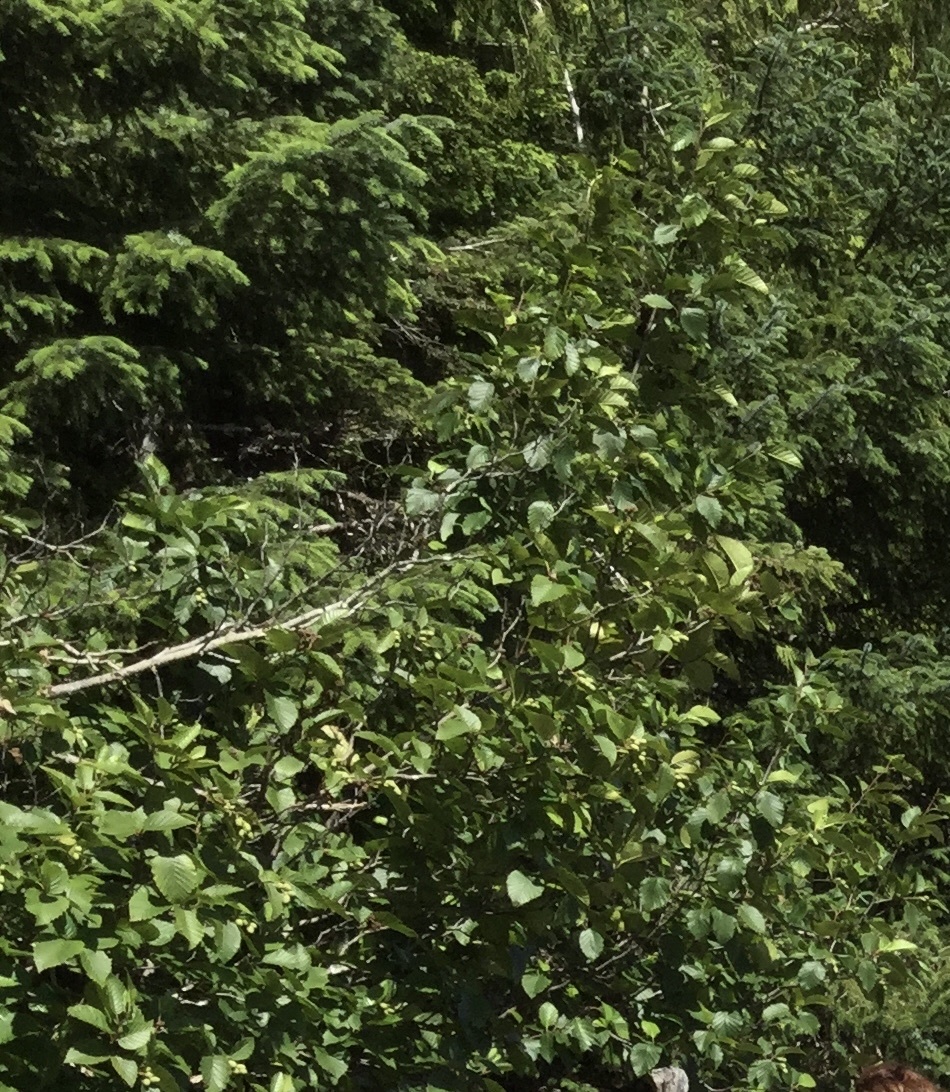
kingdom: Plantae
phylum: Tracheophyta
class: Magnoliopsida
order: Fagales
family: Betulaceae
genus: Alnus
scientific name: Alnus rubra
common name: Red alder
